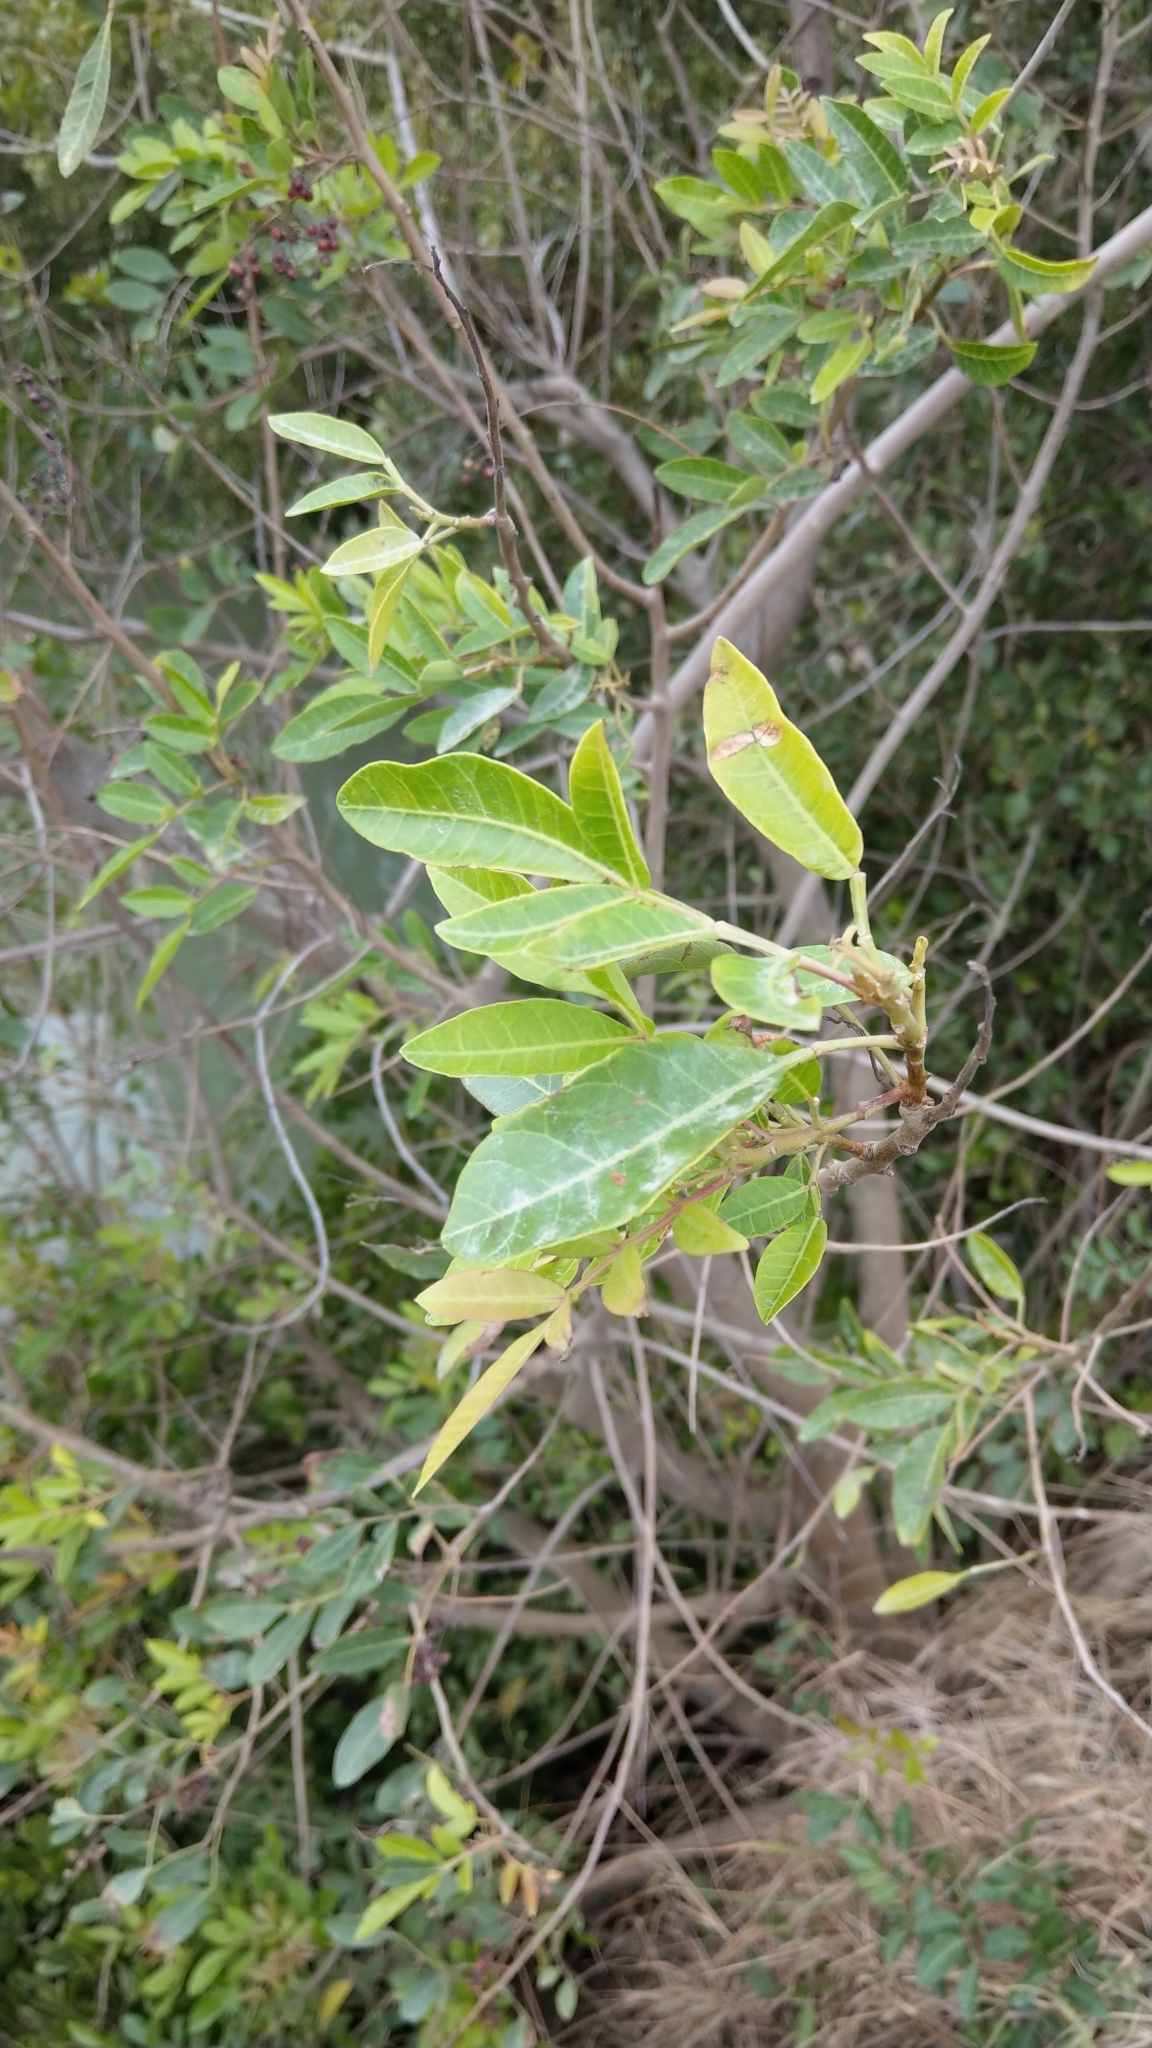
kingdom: Plantae
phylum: Tracheophyta
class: Magnoliopsida
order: Sapindales
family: Anacardiaceae
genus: Schinus
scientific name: Schinus terebinthifolia
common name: Brazilian peppertree
